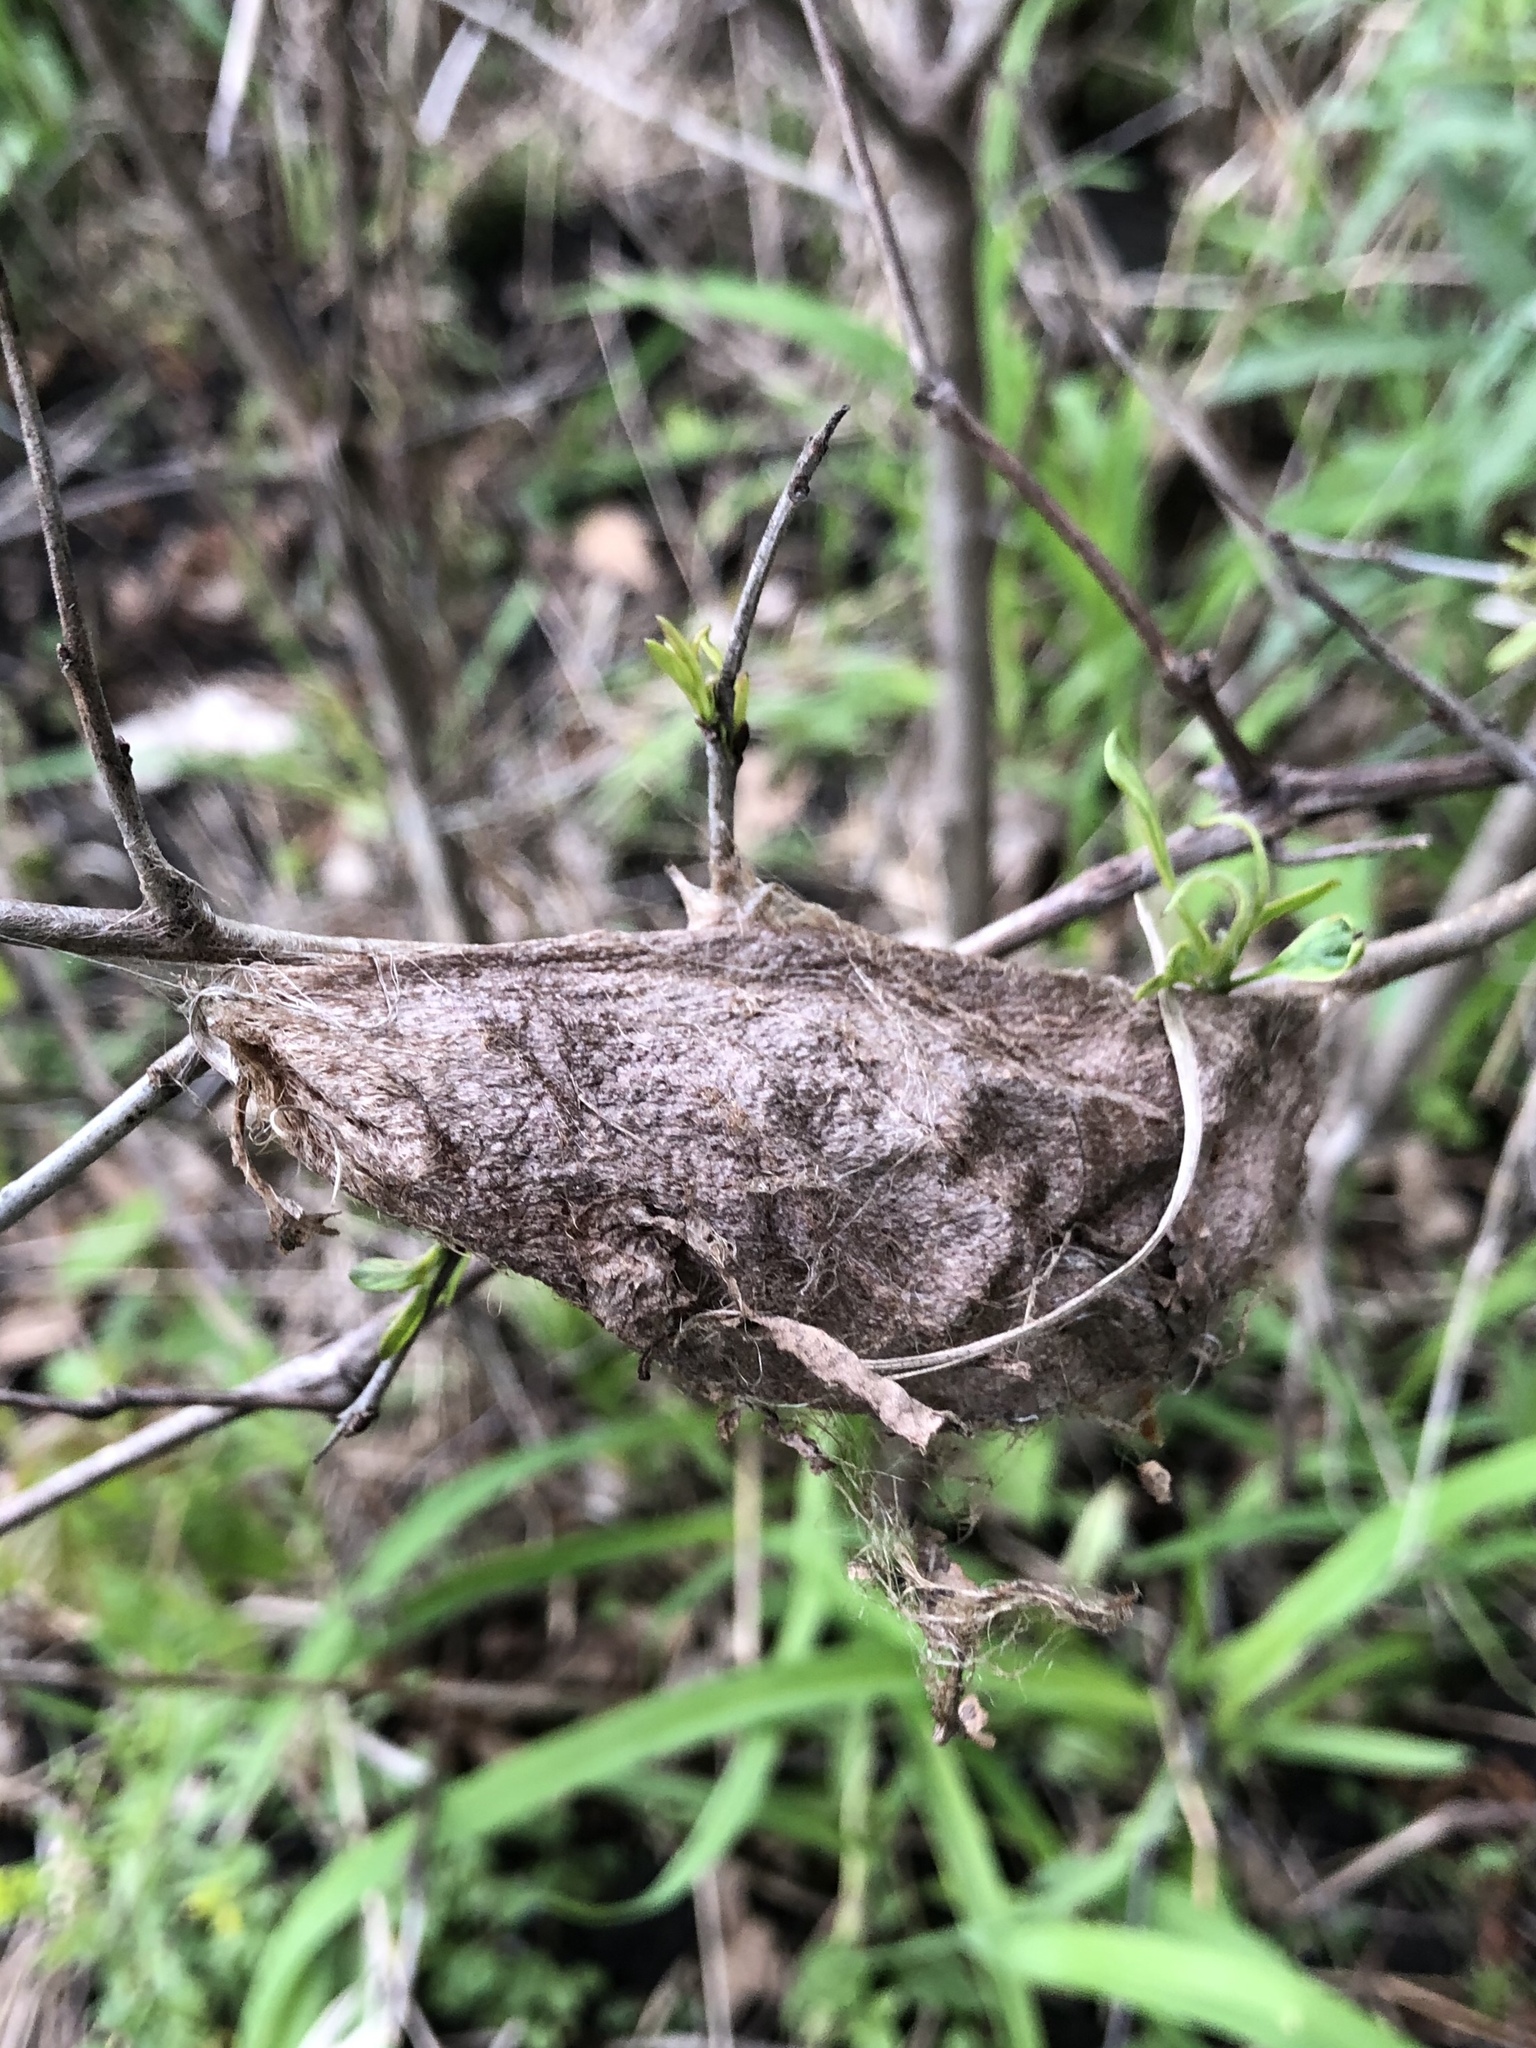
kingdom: Animalia
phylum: Arthropoda
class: Insecta
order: Lepidoptera
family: Saturniidae
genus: Hyalophora
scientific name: Hyalophora cecropia
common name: Cecropia silkmoth
